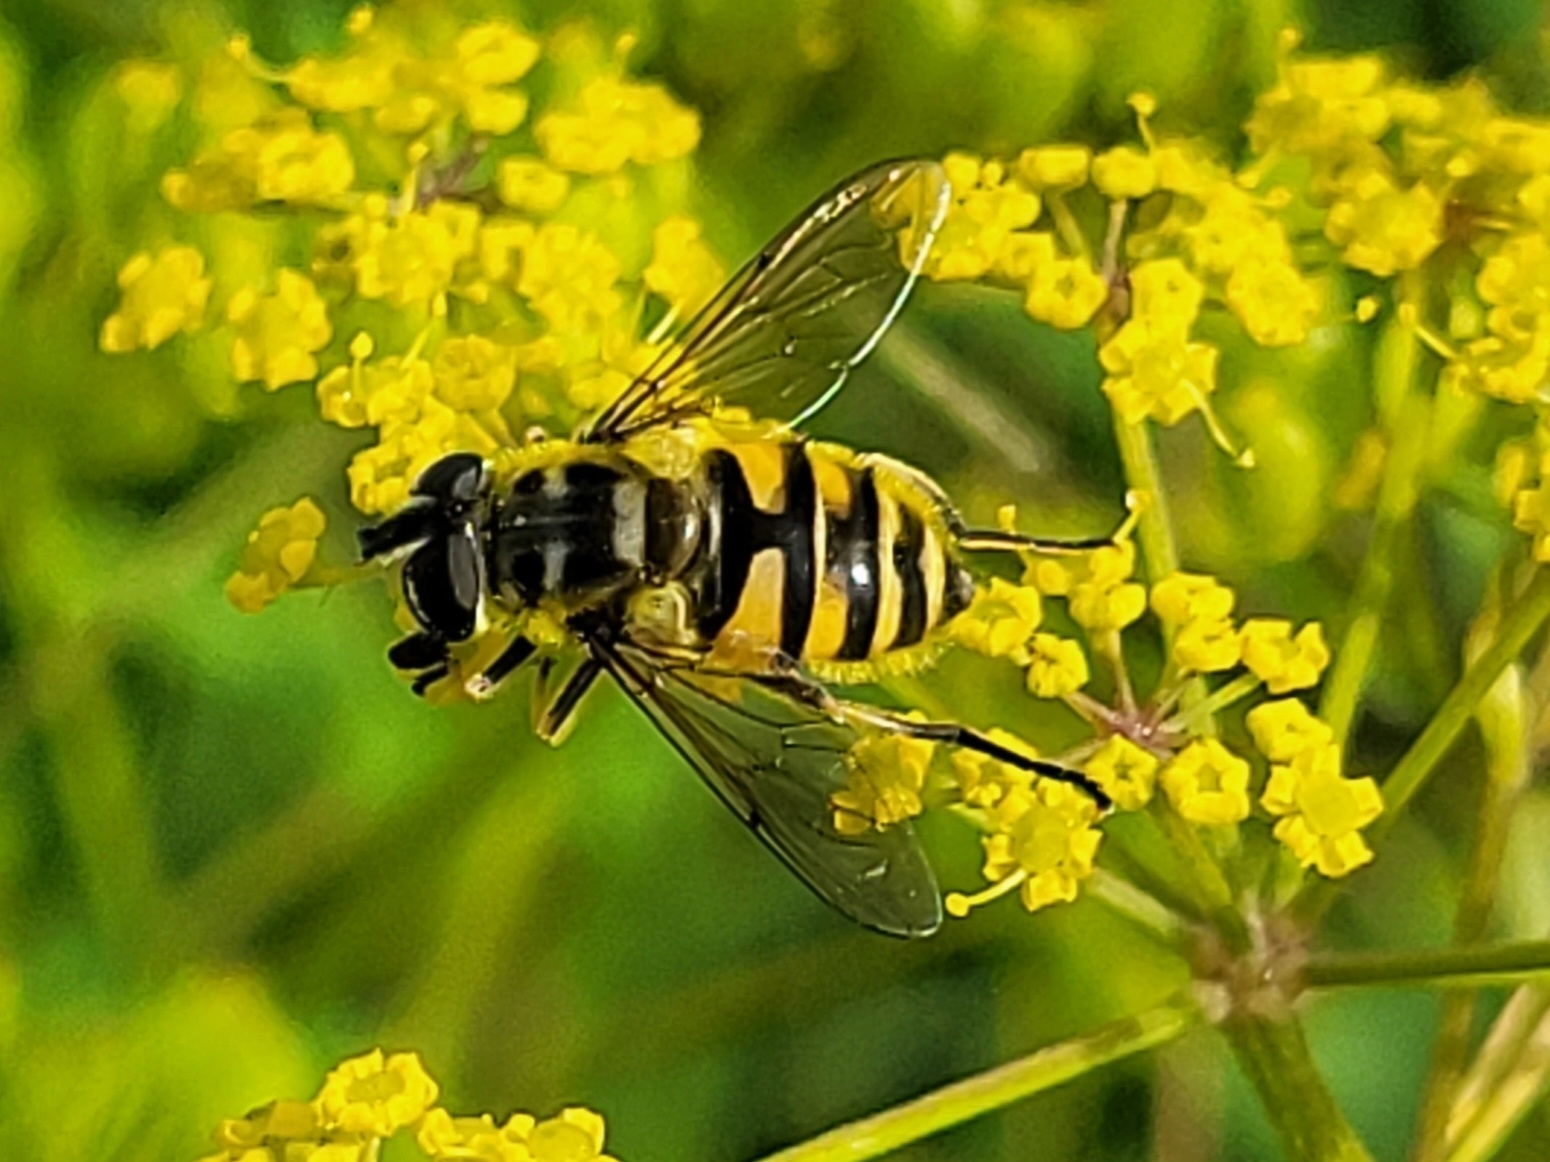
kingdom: Animalia
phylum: Arthropoda
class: Insecta
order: Diptera
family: Syrphidae
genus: Myathropa
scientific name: Myathropa florea
